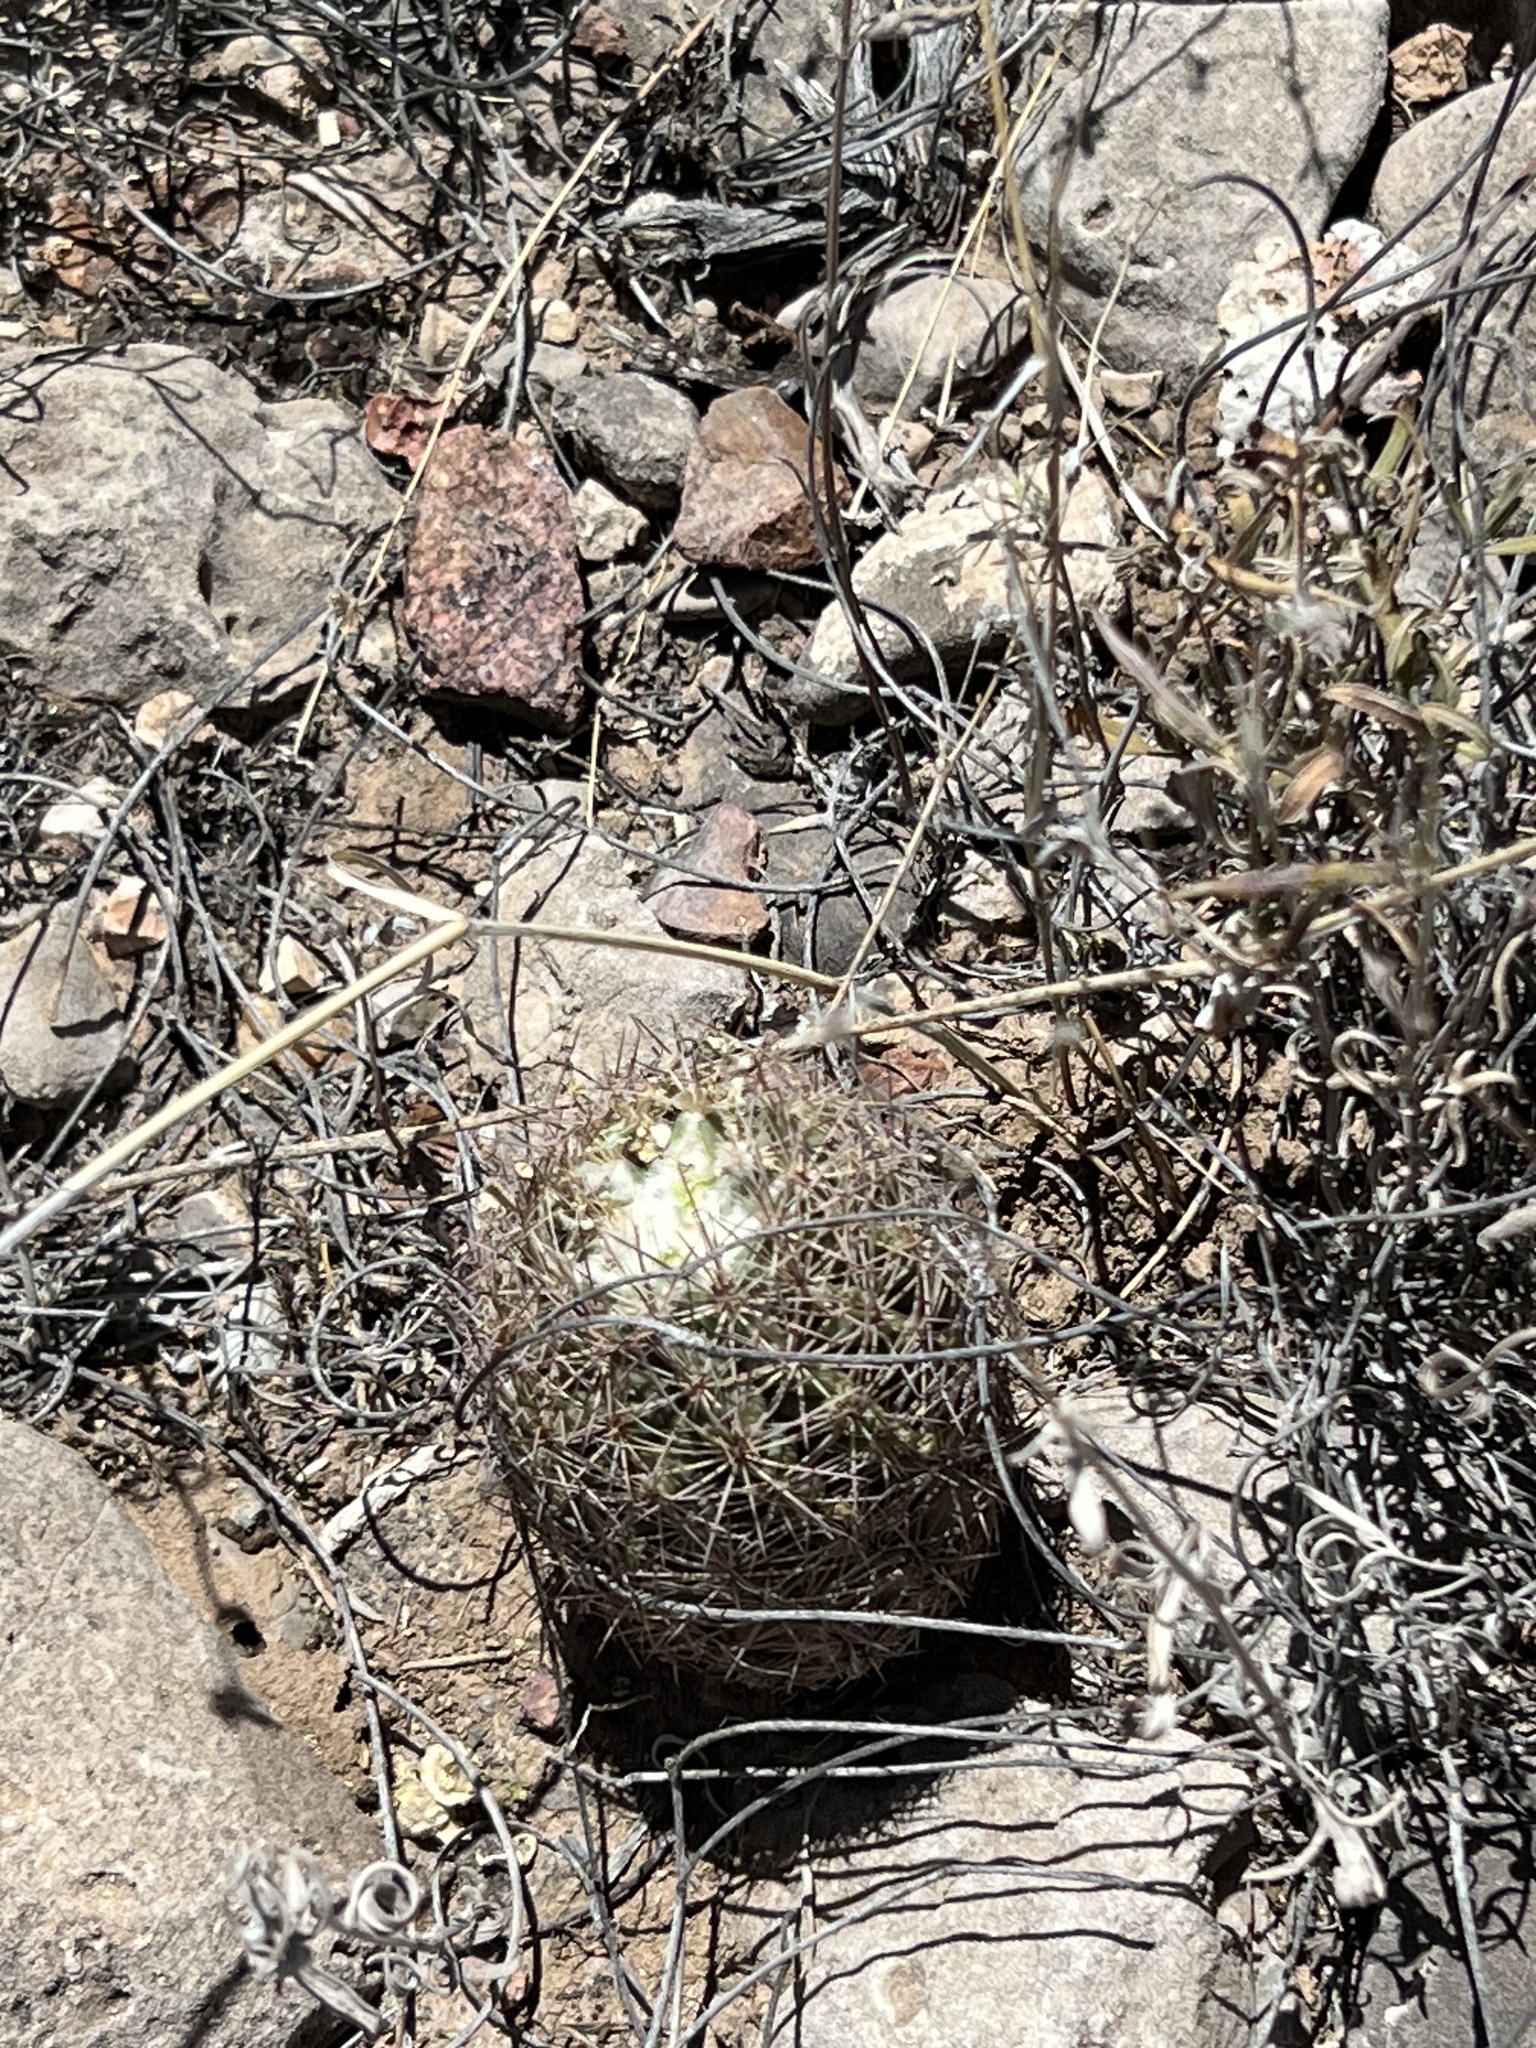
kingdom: Plantae
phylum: Tracheophyta
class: Magnoliopsida
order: Caryophyllales
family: Cactaceae
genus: Sclerocactus
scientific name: Sclerocactus intertextus
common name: White fish-hook cactus
